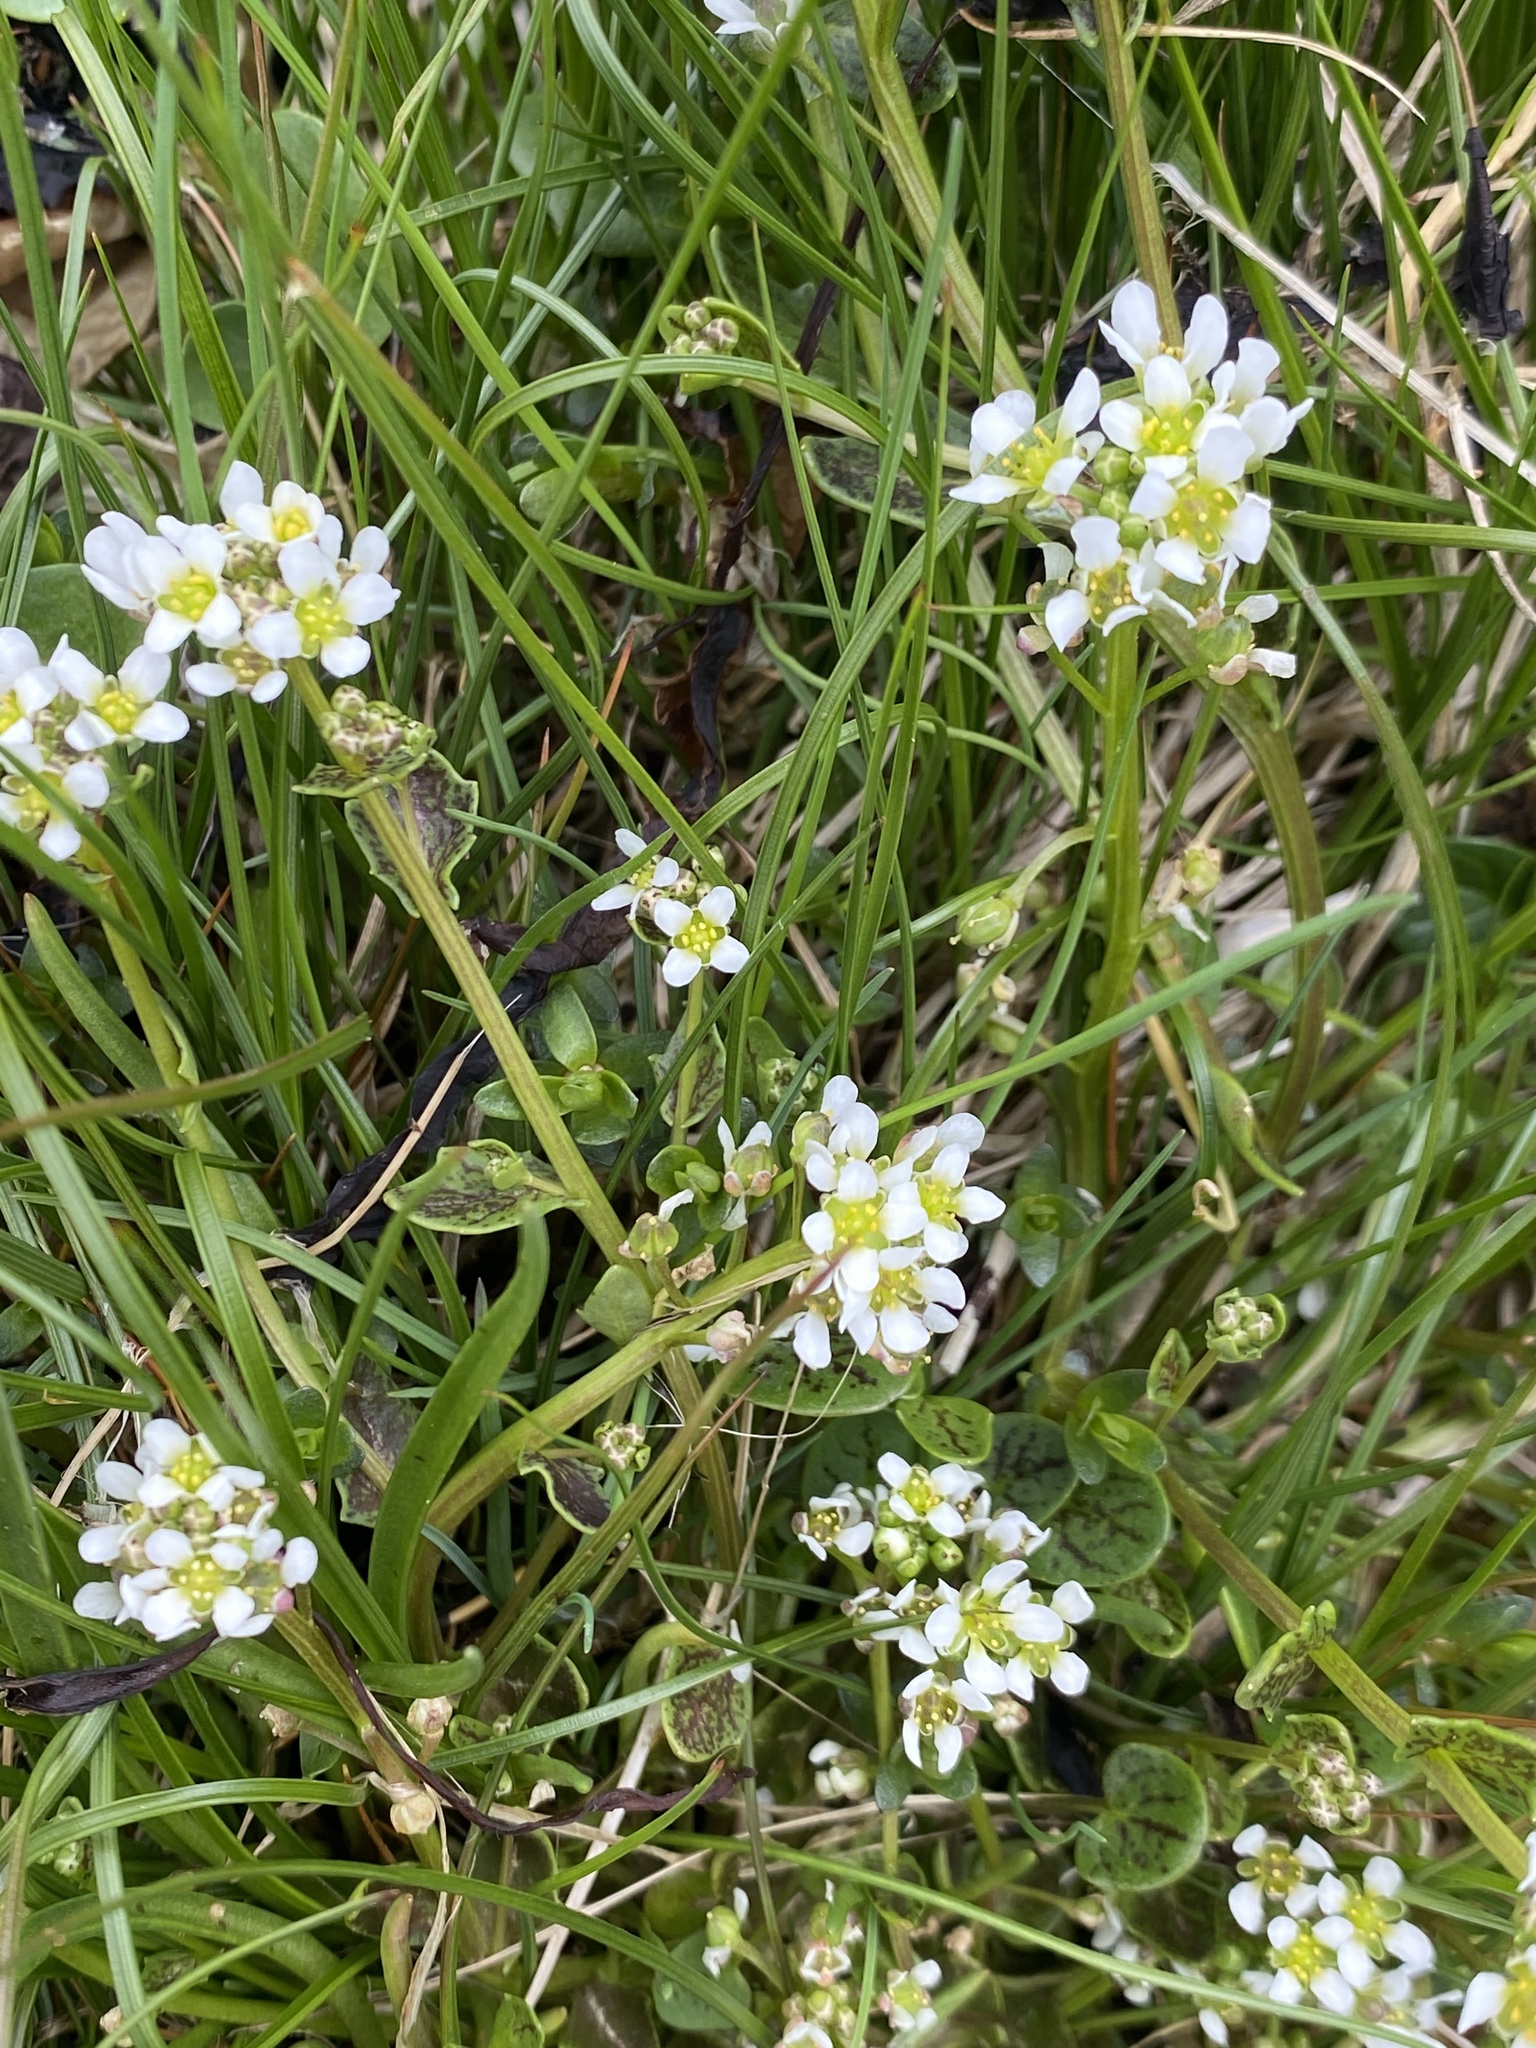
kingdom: Plantae
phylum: Tracheophyta
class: Magnoliopsida
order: Brassicales
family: Brassicaceae
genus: Cochlearia
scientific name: Cochlearia officinalis
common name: Scurvy-grass
